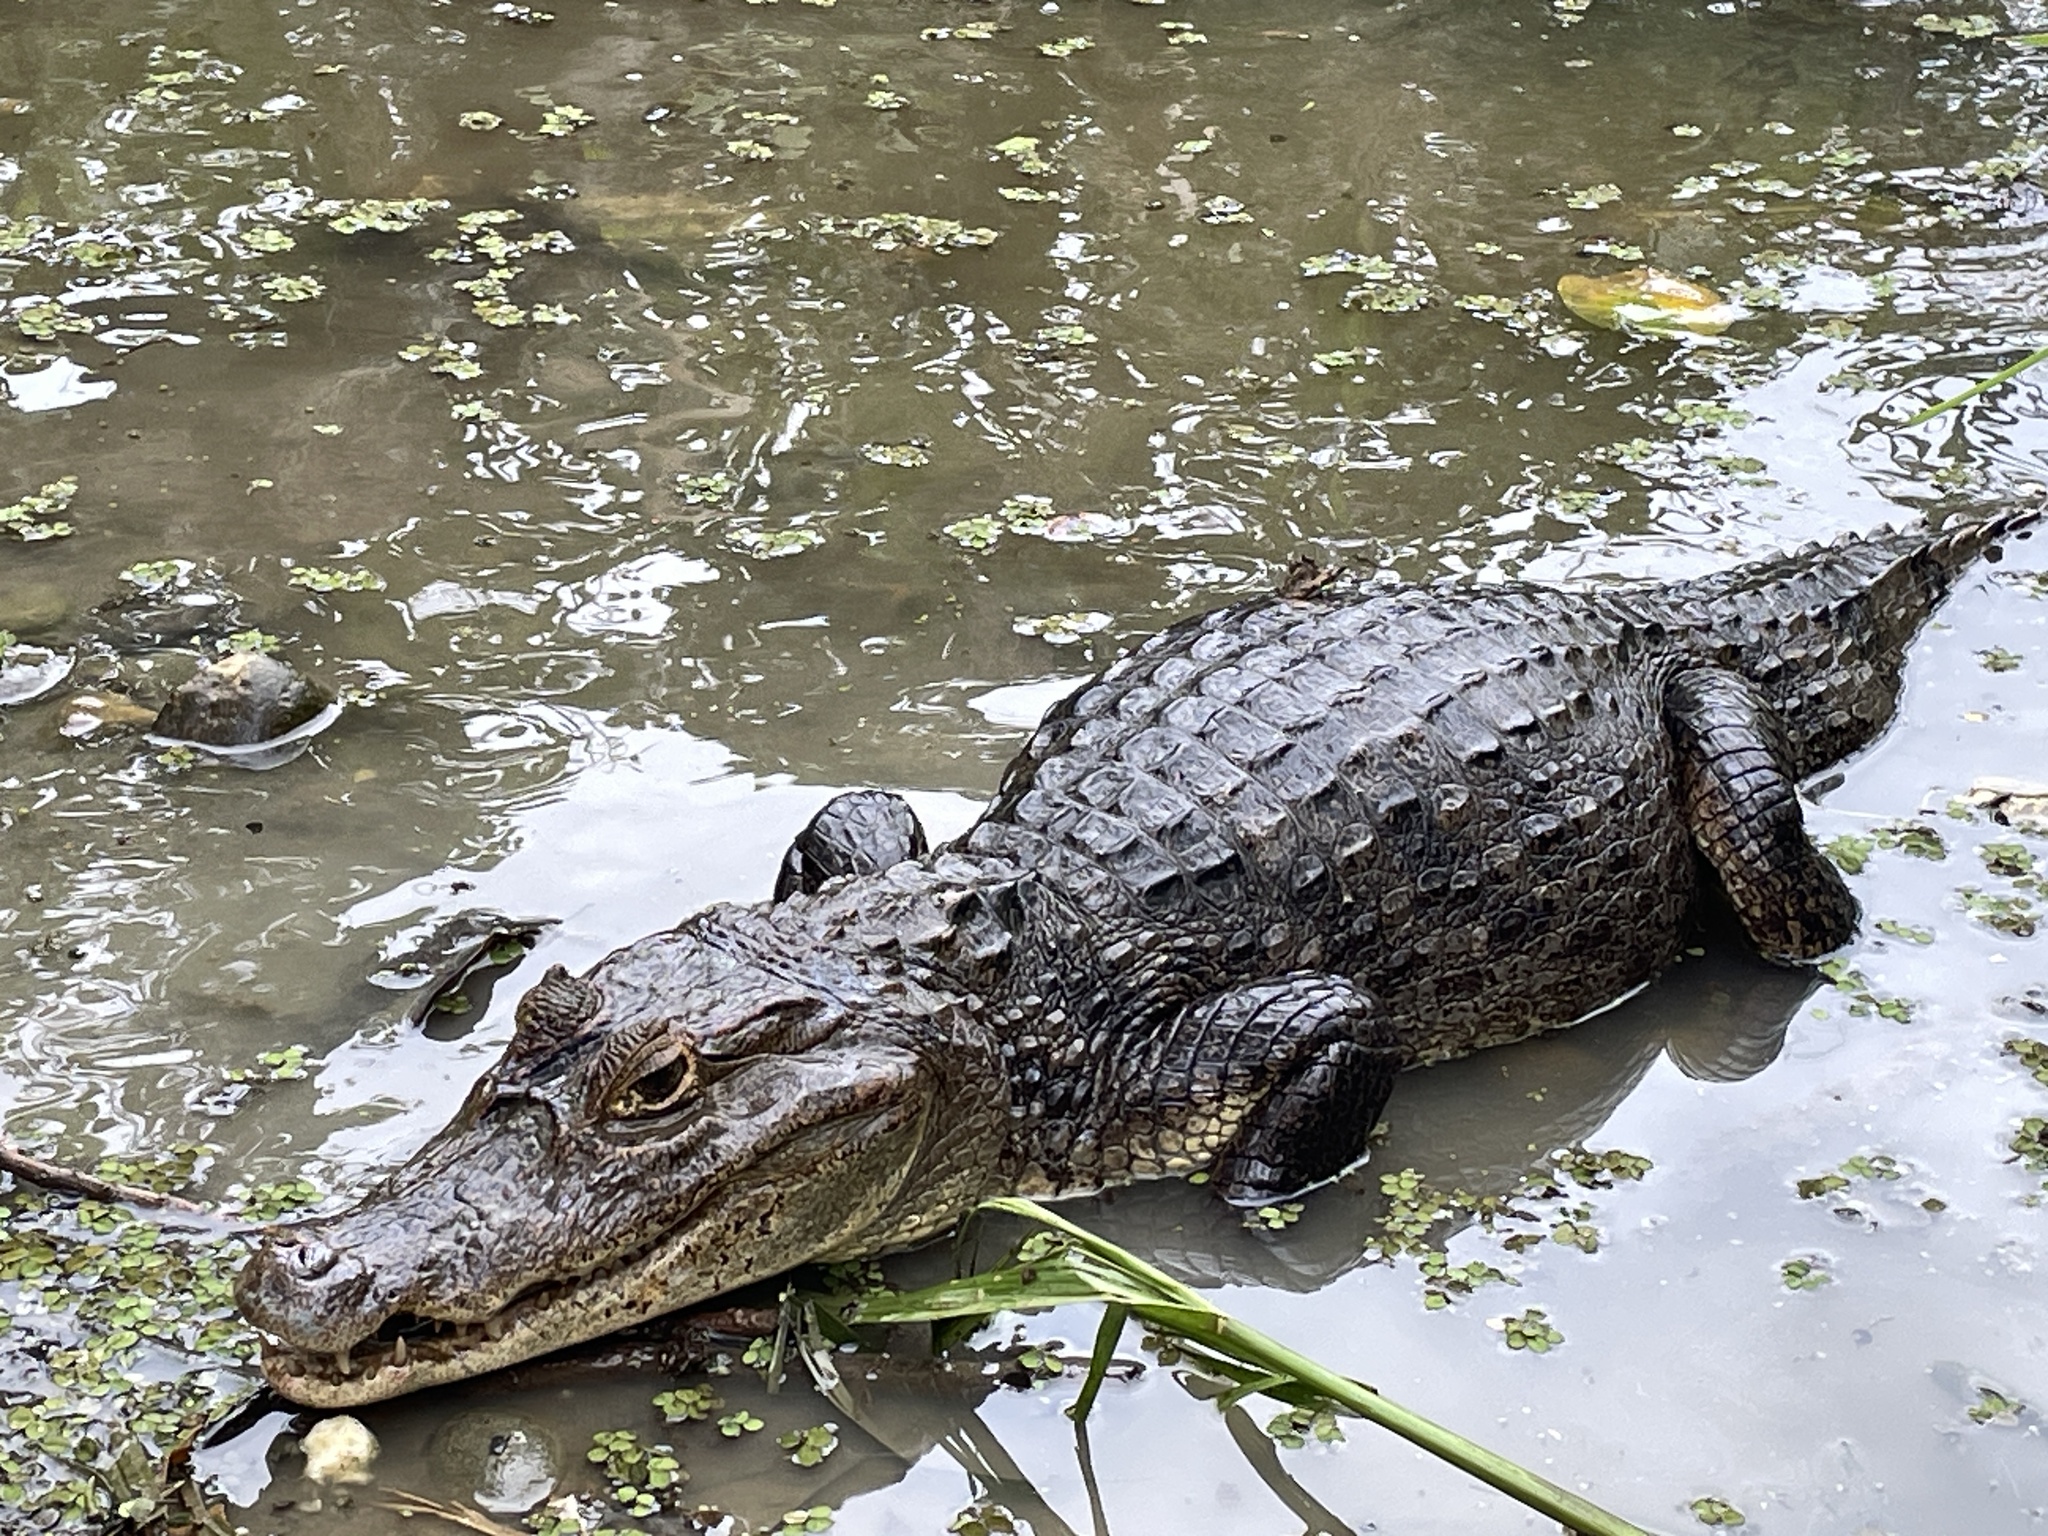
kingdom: Animalia
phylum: Chordata
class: Crocodylia
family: Alligatoridae
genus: Caiman
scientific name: Caiman crocodilus
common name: Common caiman
